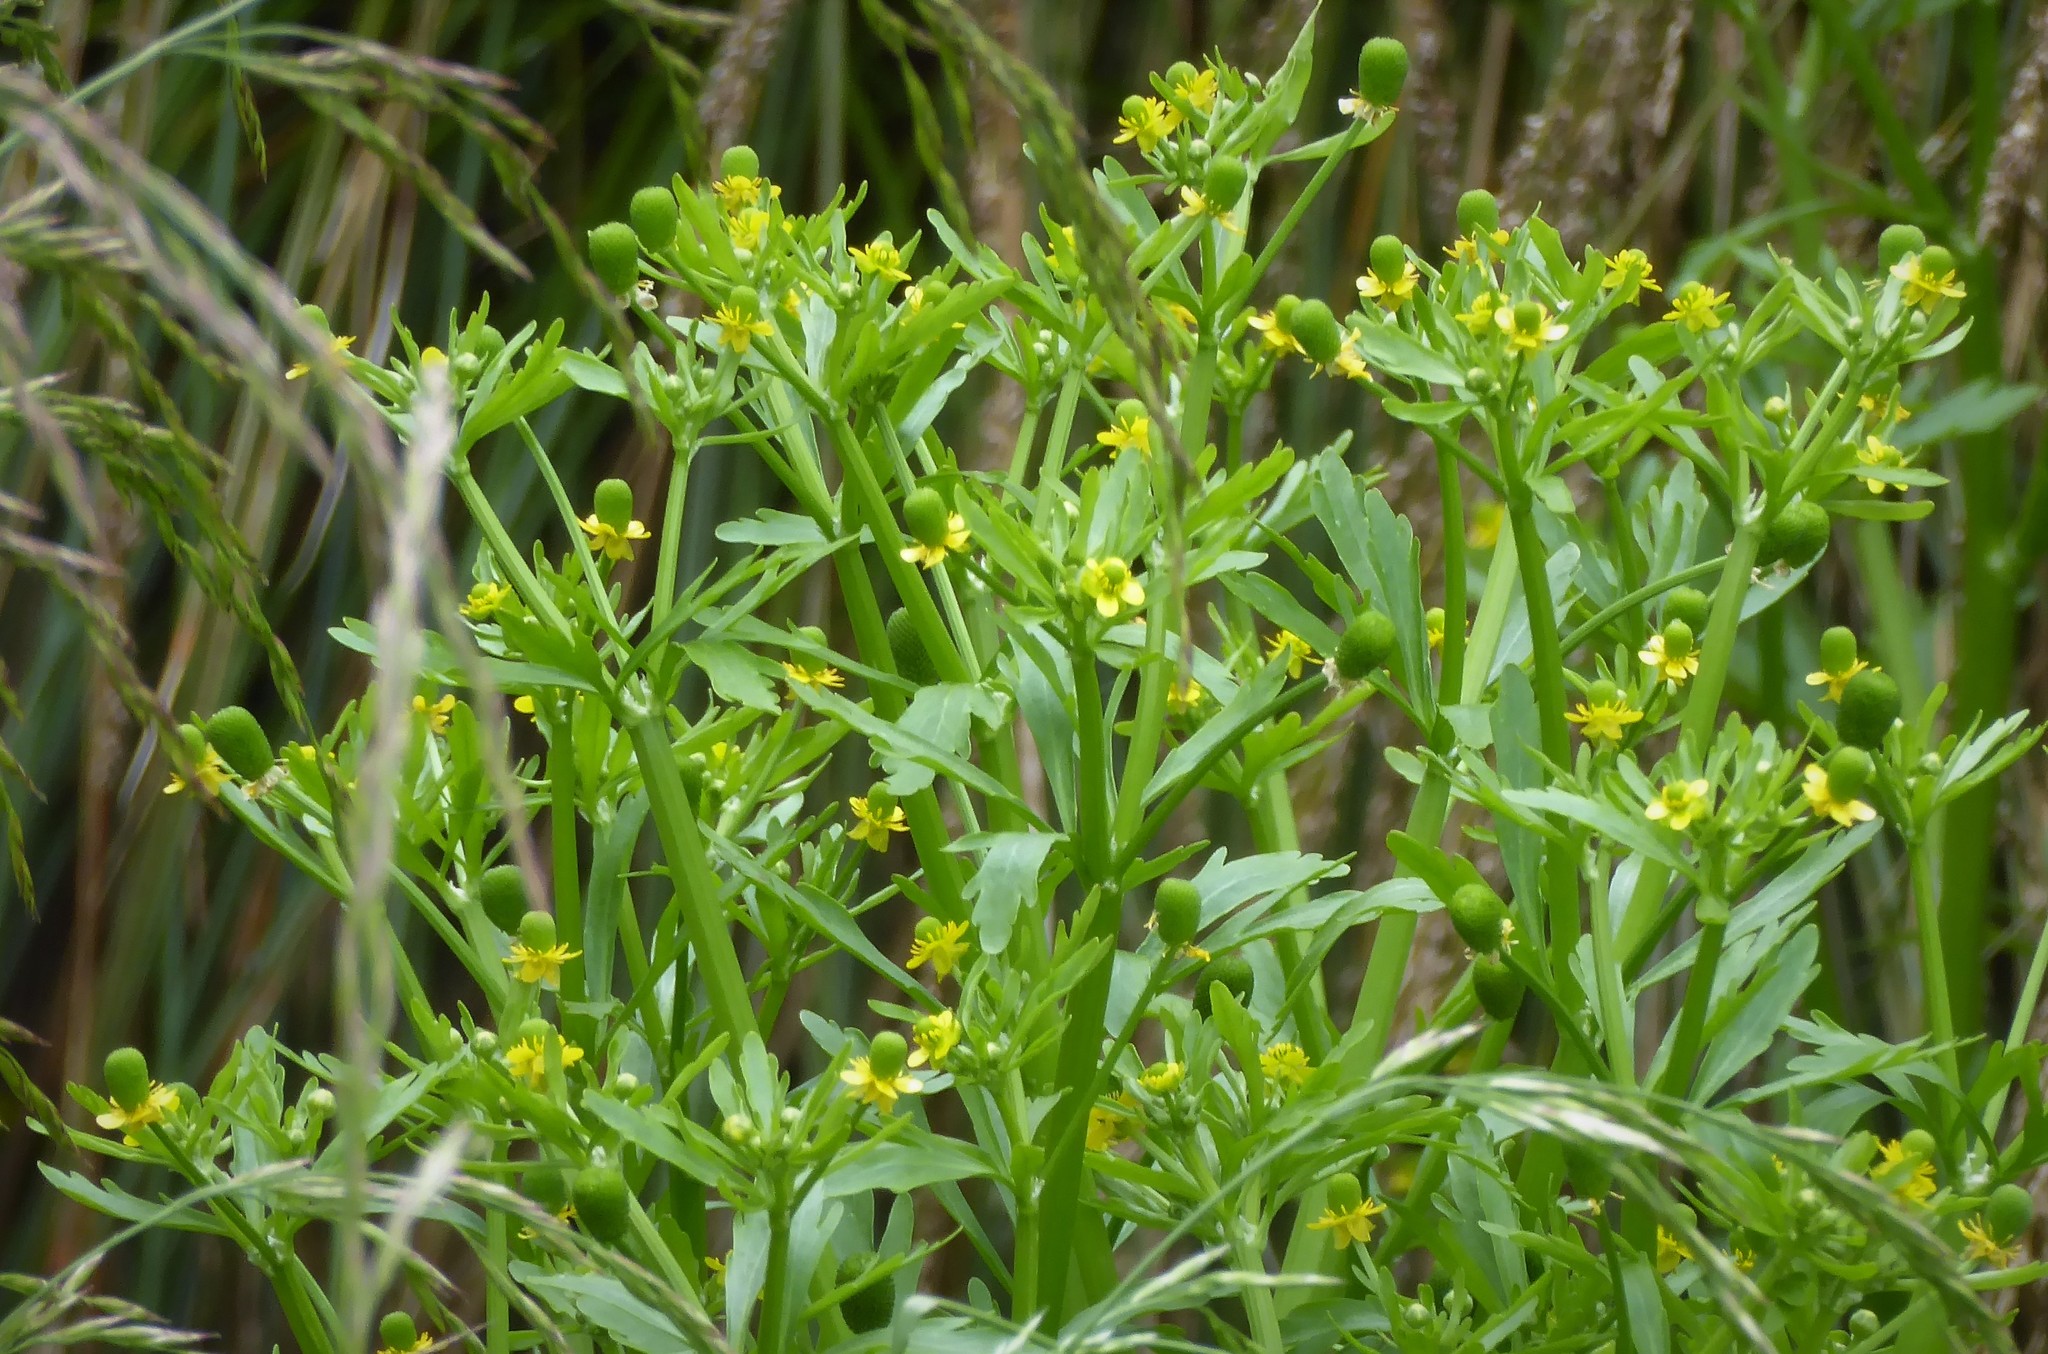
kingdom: Plantae
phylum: Tracheophyta
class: Magnoliopsida
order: Ranunculales
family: Ranunculaceae
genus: Ranunculus
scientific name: Ranunculus sceleratus
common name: Celery-leaved buttercup
